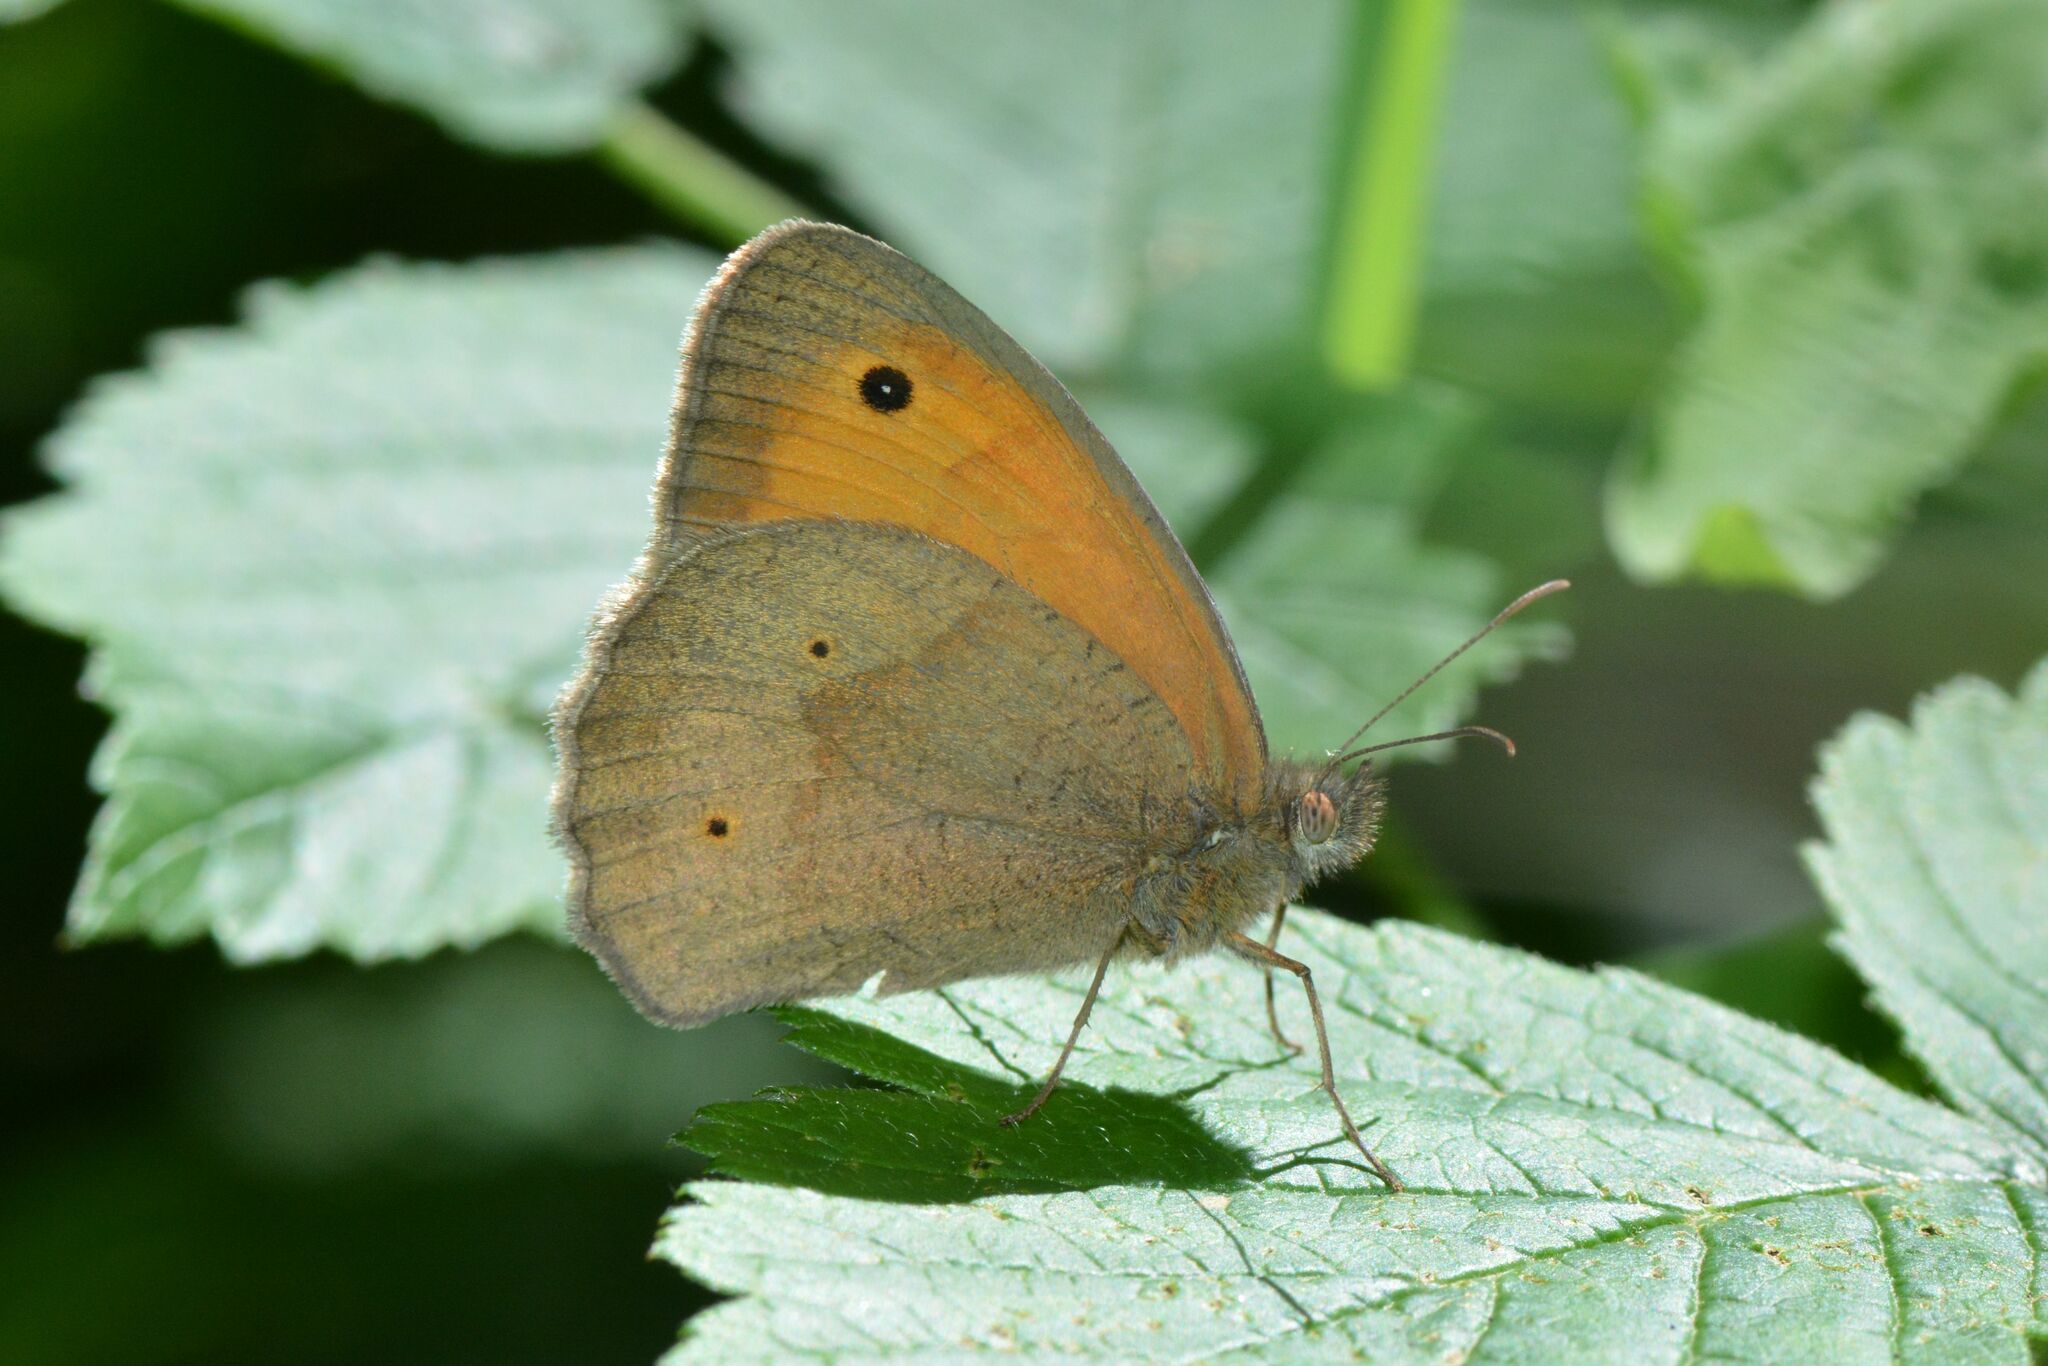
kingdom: Animalia
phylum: Arthropoda
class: Insecta
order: Lepidoptera
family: Nymphalidae
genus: Maniola
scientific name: Maniola jurtina
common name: Meadow brown
